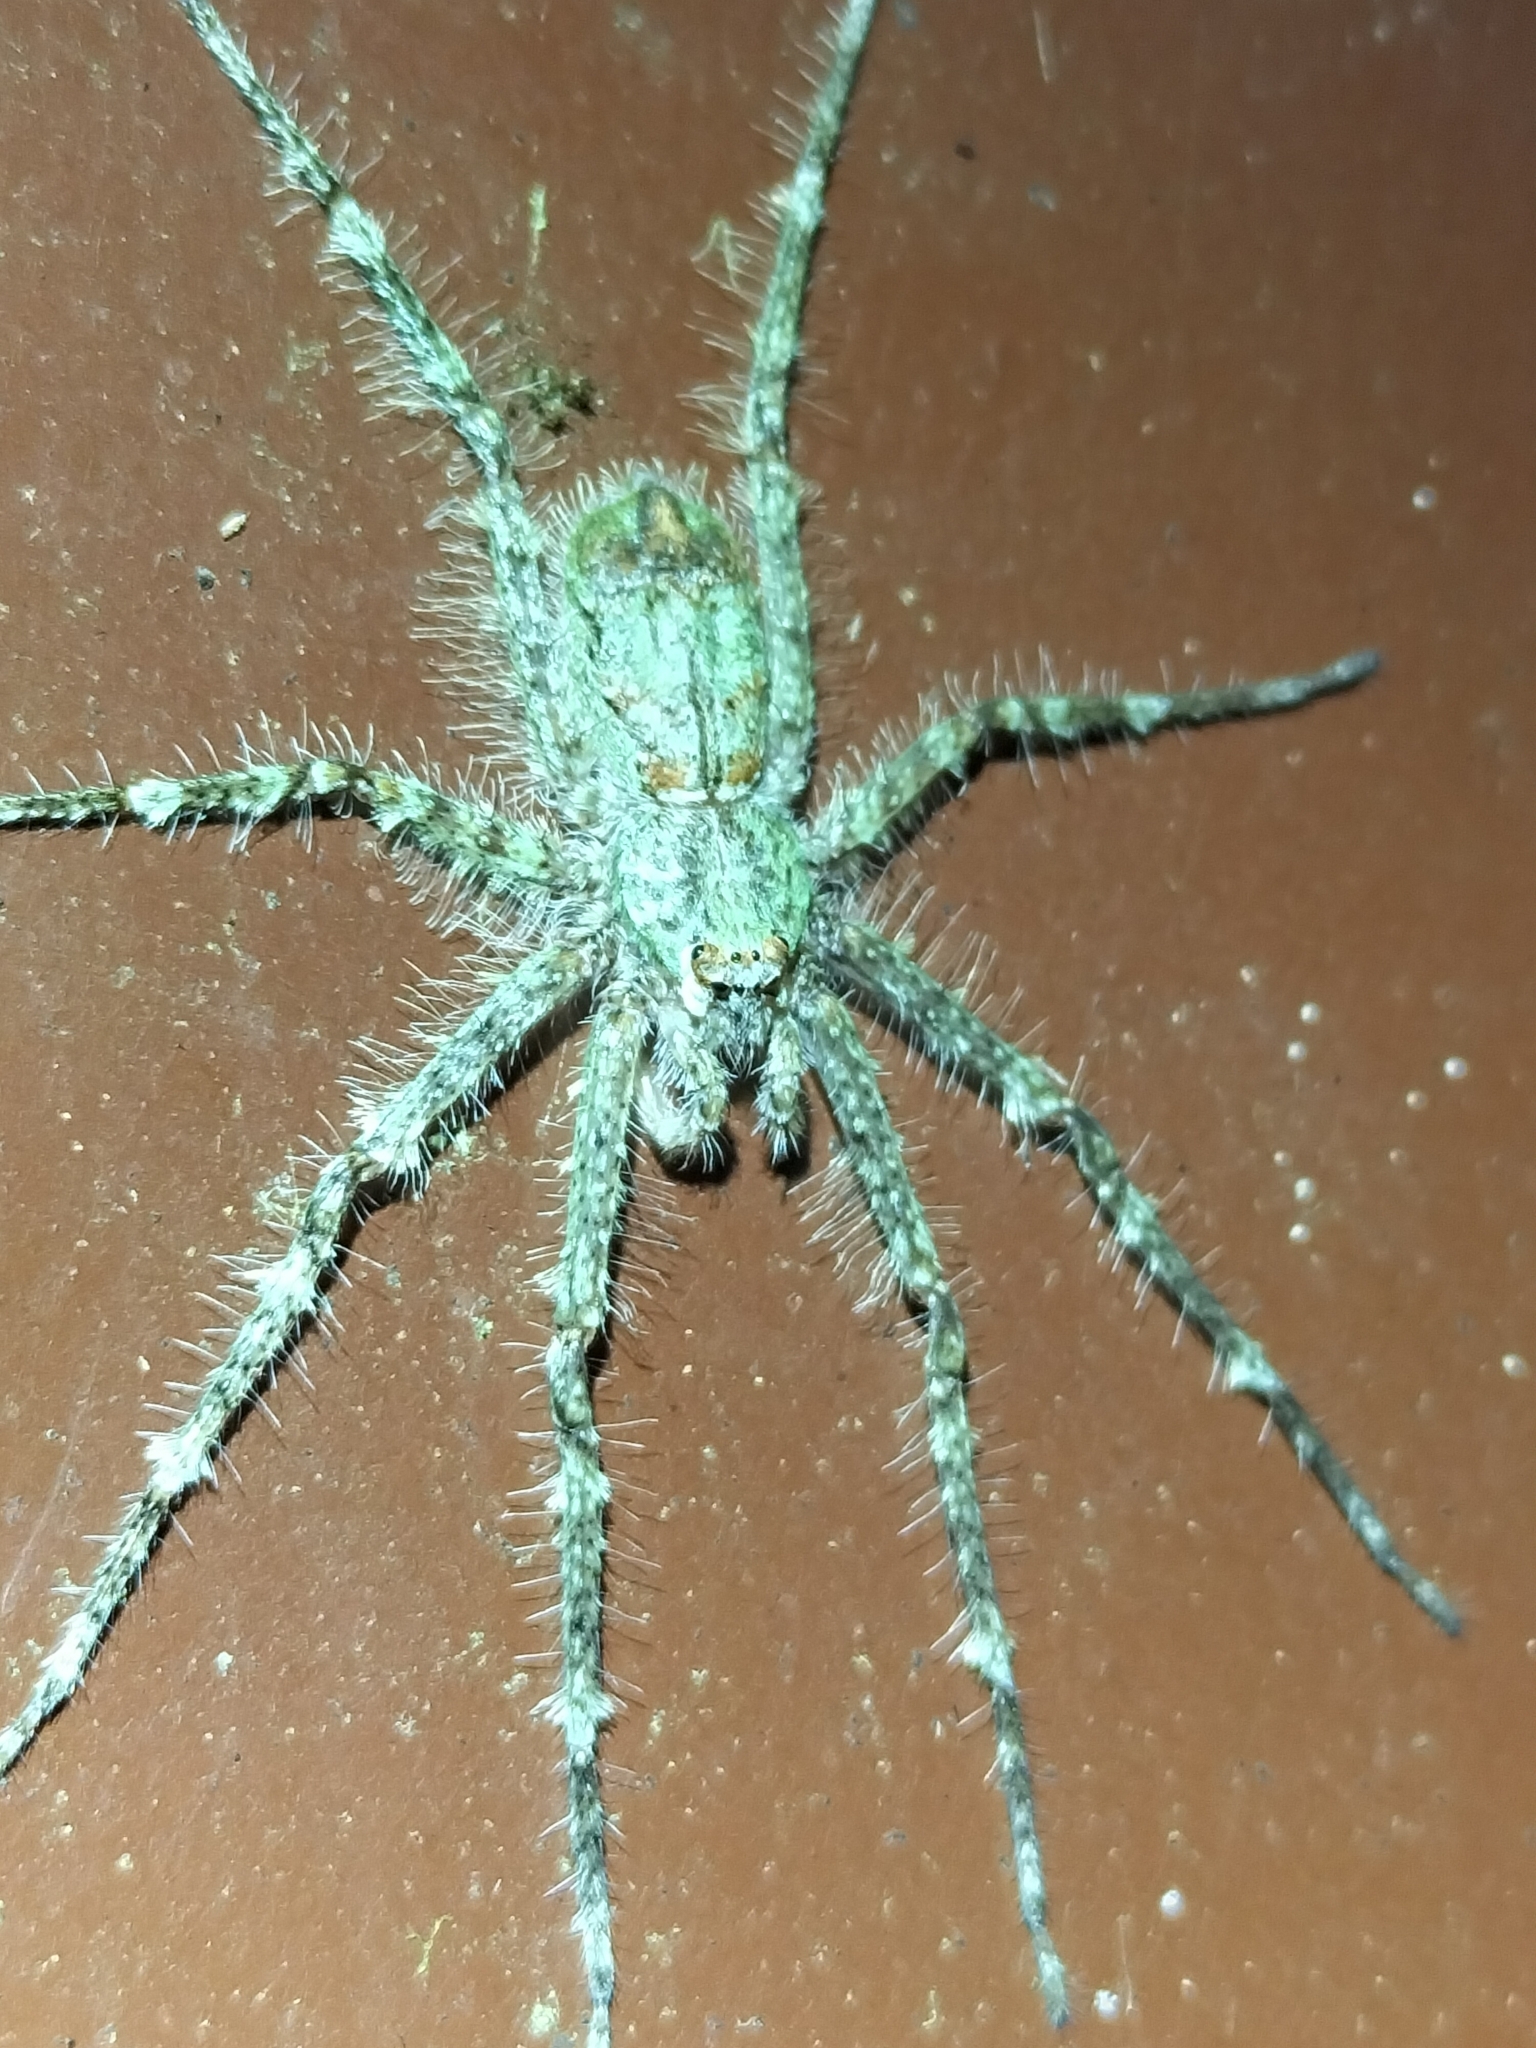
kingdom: Animalia
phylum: Arthropoda
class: Arachnida
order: Araneae
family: Sparassidae
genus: Pandercetes
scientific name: Pandercetes gracilis
